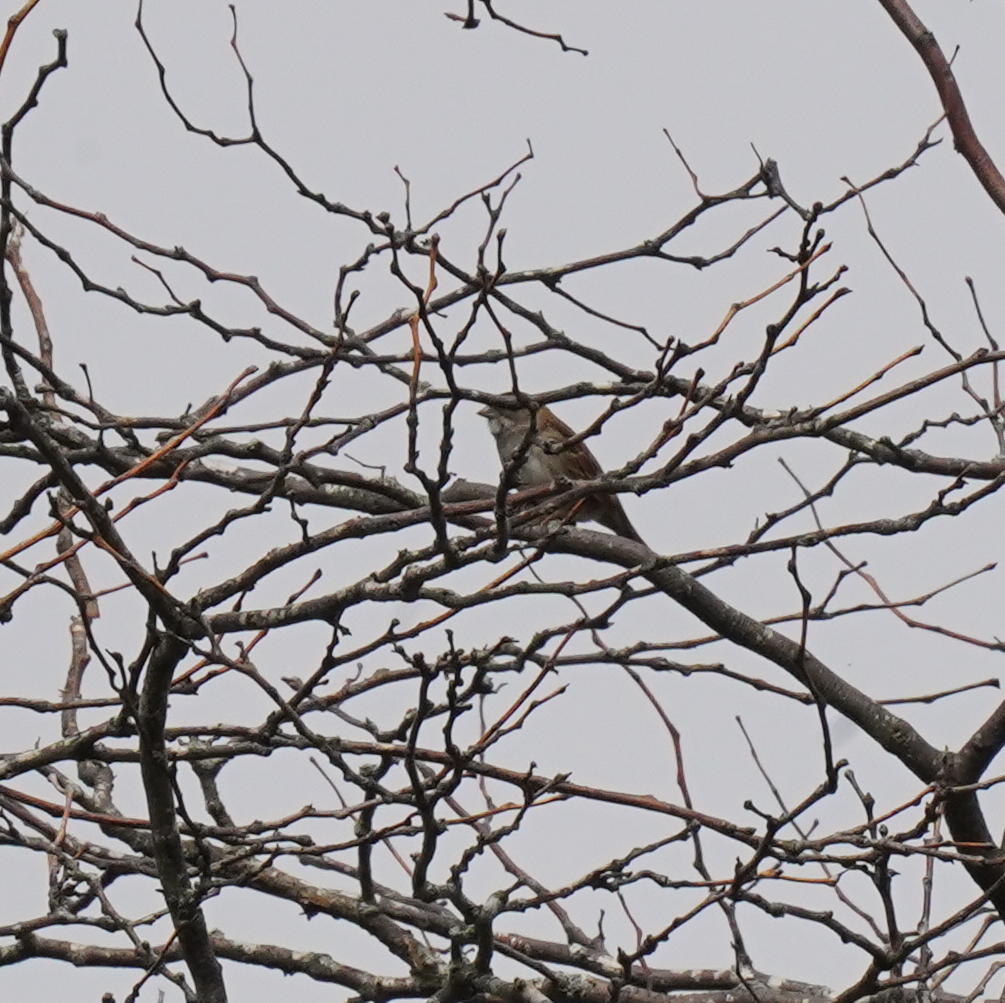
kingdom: Animalia
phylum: Chordata
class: Aves
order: Passeriformes
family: Passerellidae
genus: Zonotrichia
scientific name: Zonotrichia albicollis
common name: White-throated sparrow
